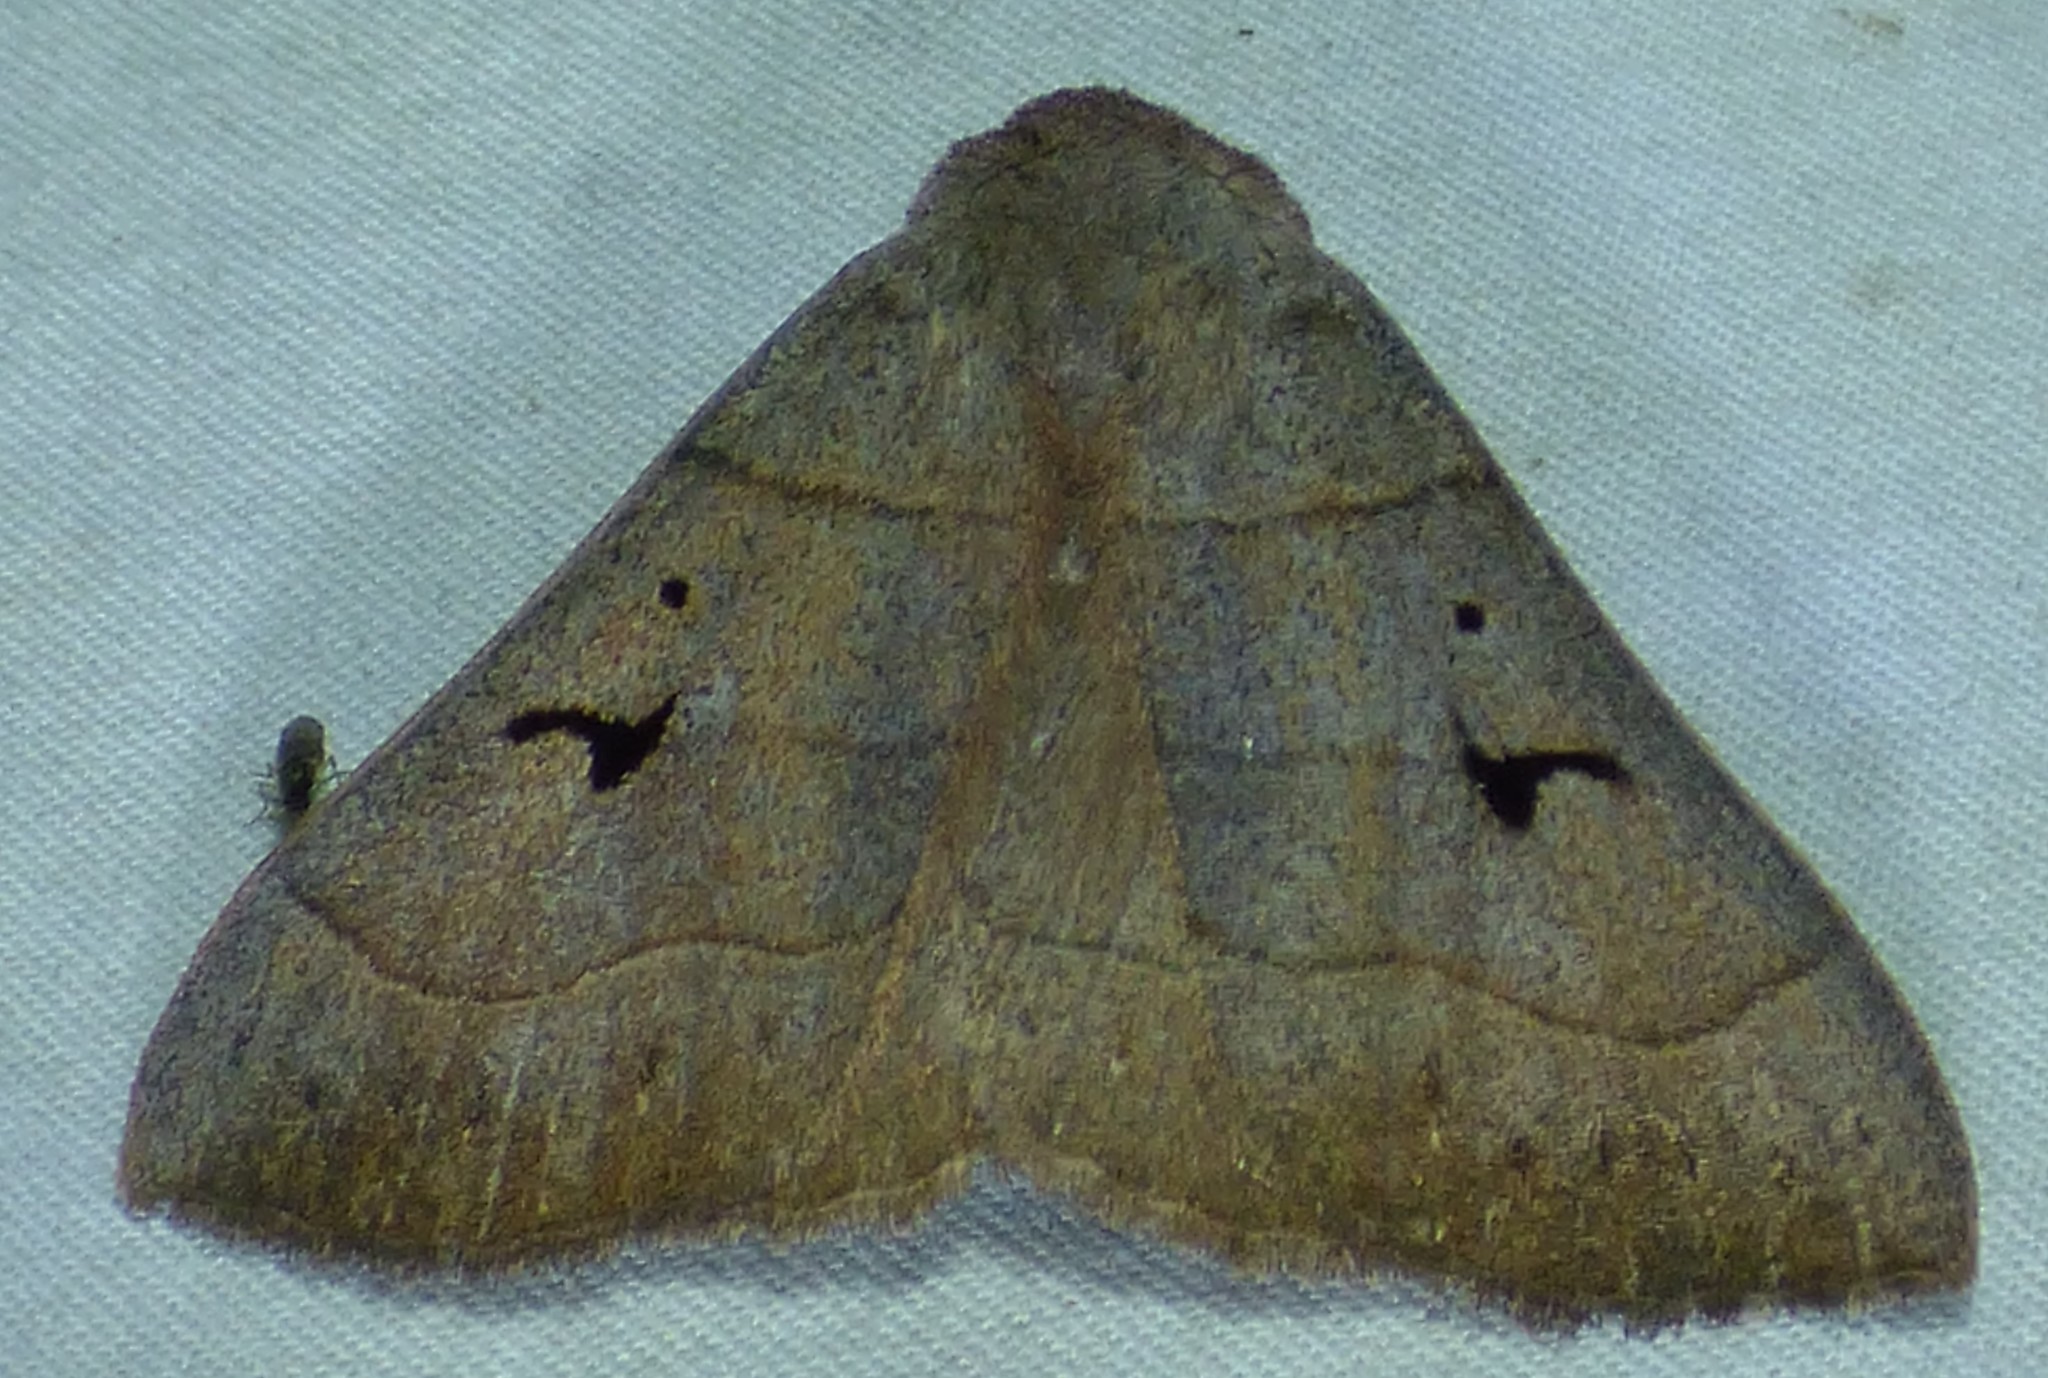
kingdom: Animalia
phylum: Arthropoda
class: Insecta
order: Lepidoptera
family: Erebidae
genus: Panopoda
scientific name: Panopoda carneicosta
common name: Brown panopoda moth
